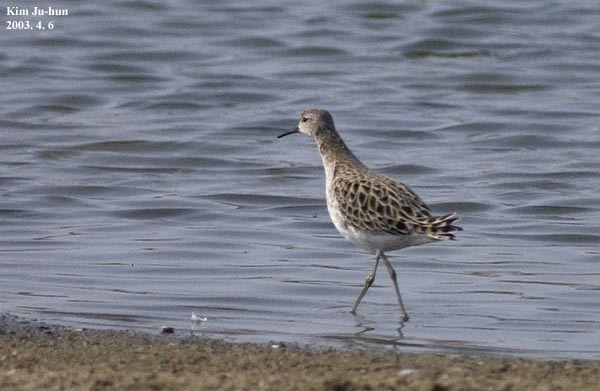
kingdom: Animalia
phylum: Chordata
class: Aves
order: Charadriiformes
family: Scolopacidae
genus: Calidris
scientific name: Calidris pugnax
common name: Ruff
